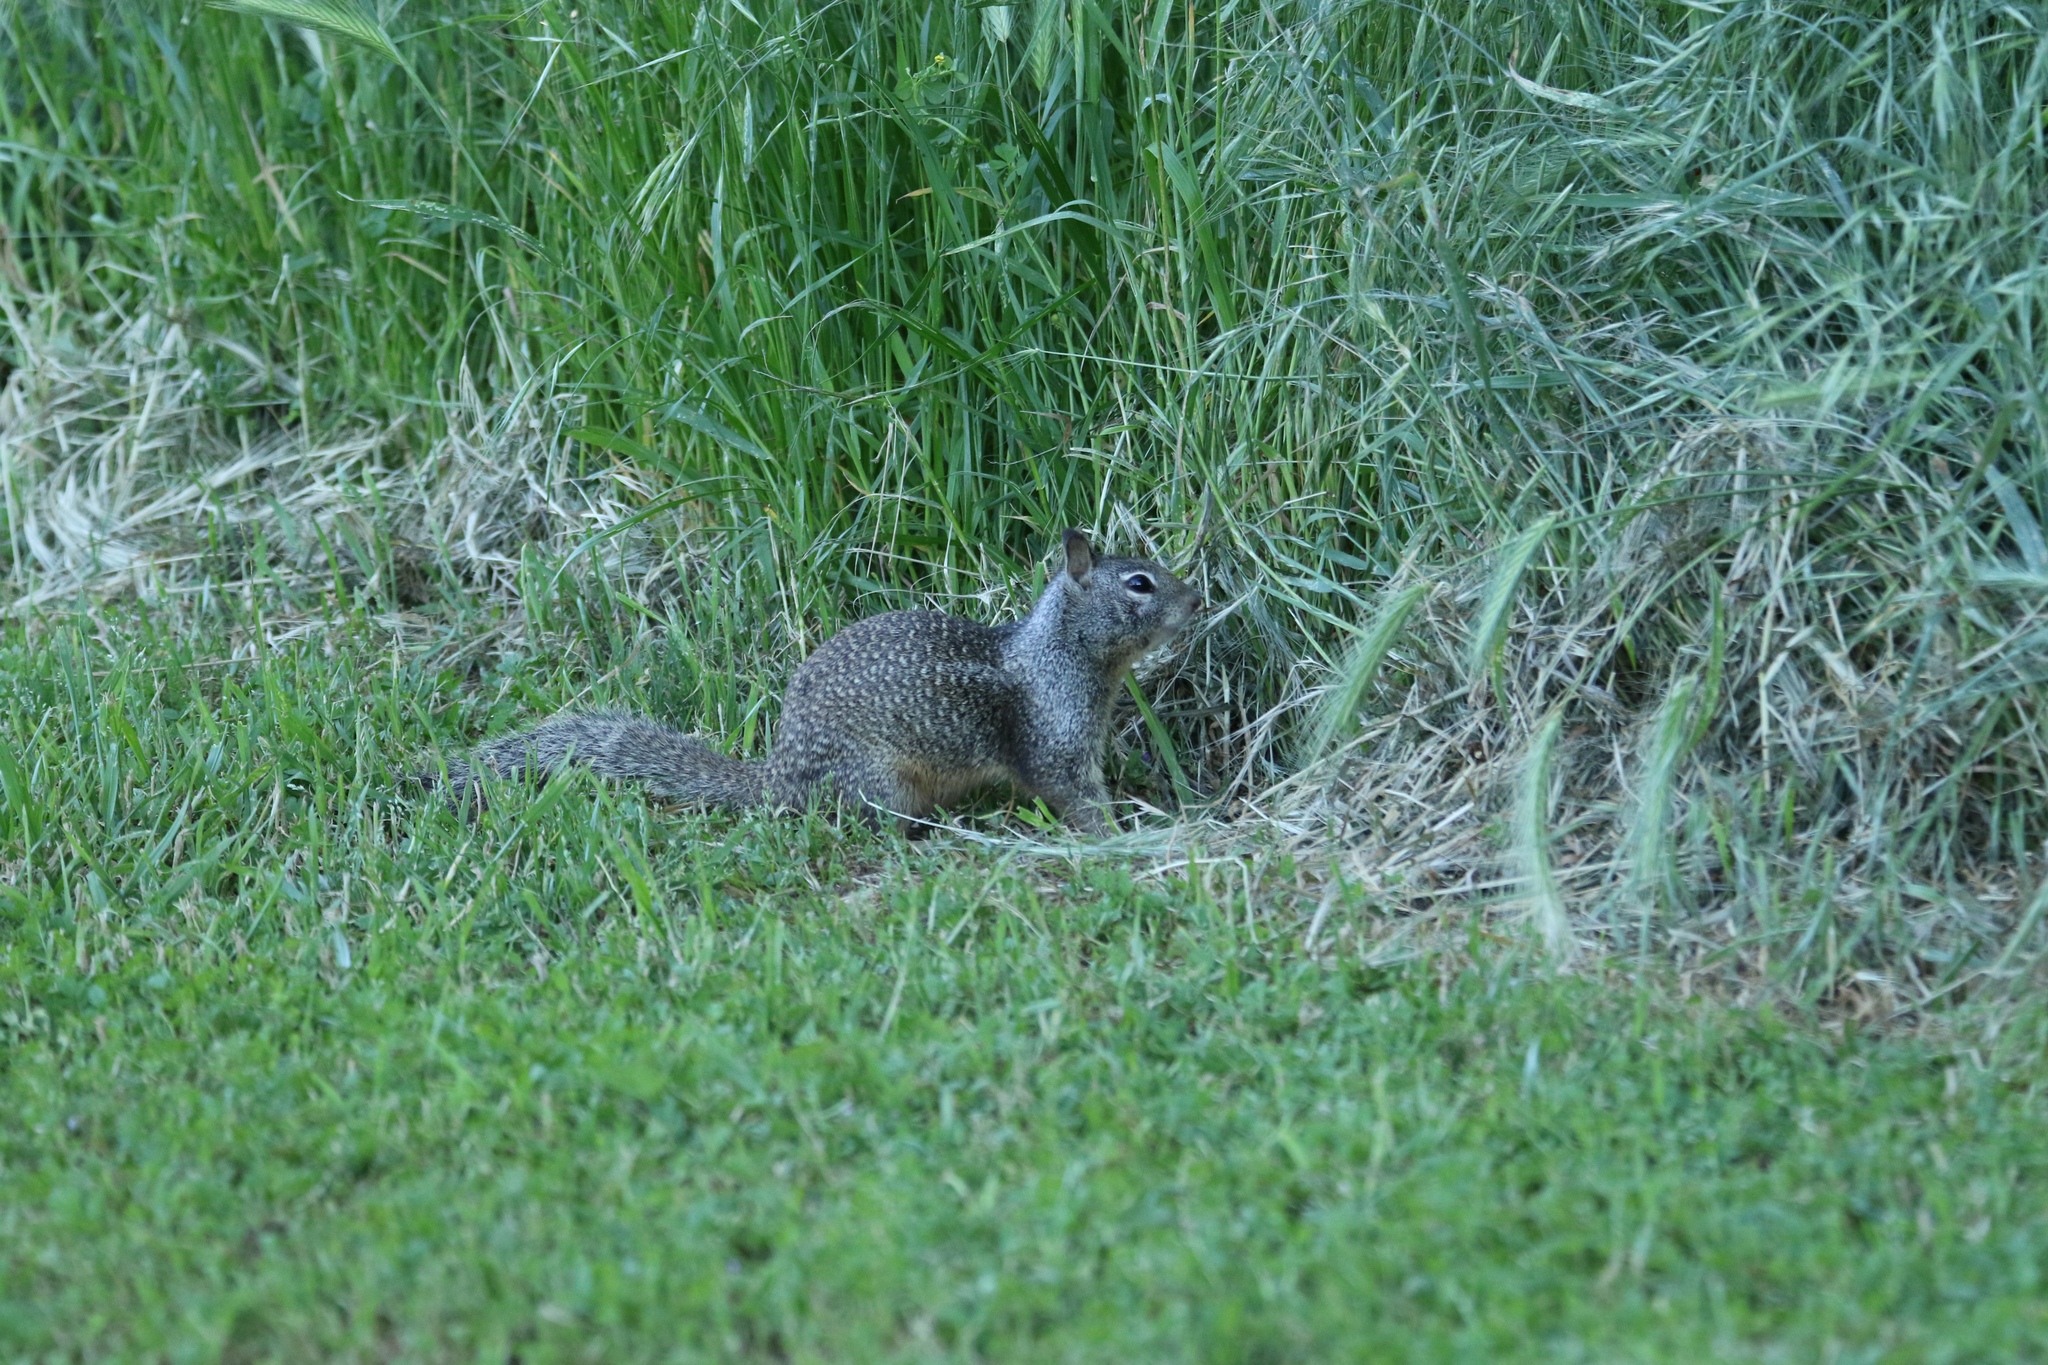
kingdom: Animalia
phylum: Chordata
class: Mammalia
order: Rodentia
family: Sciuridae
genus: Otospermophilus
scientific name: Otospermophilus beecheyi
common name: California ground squirrel
